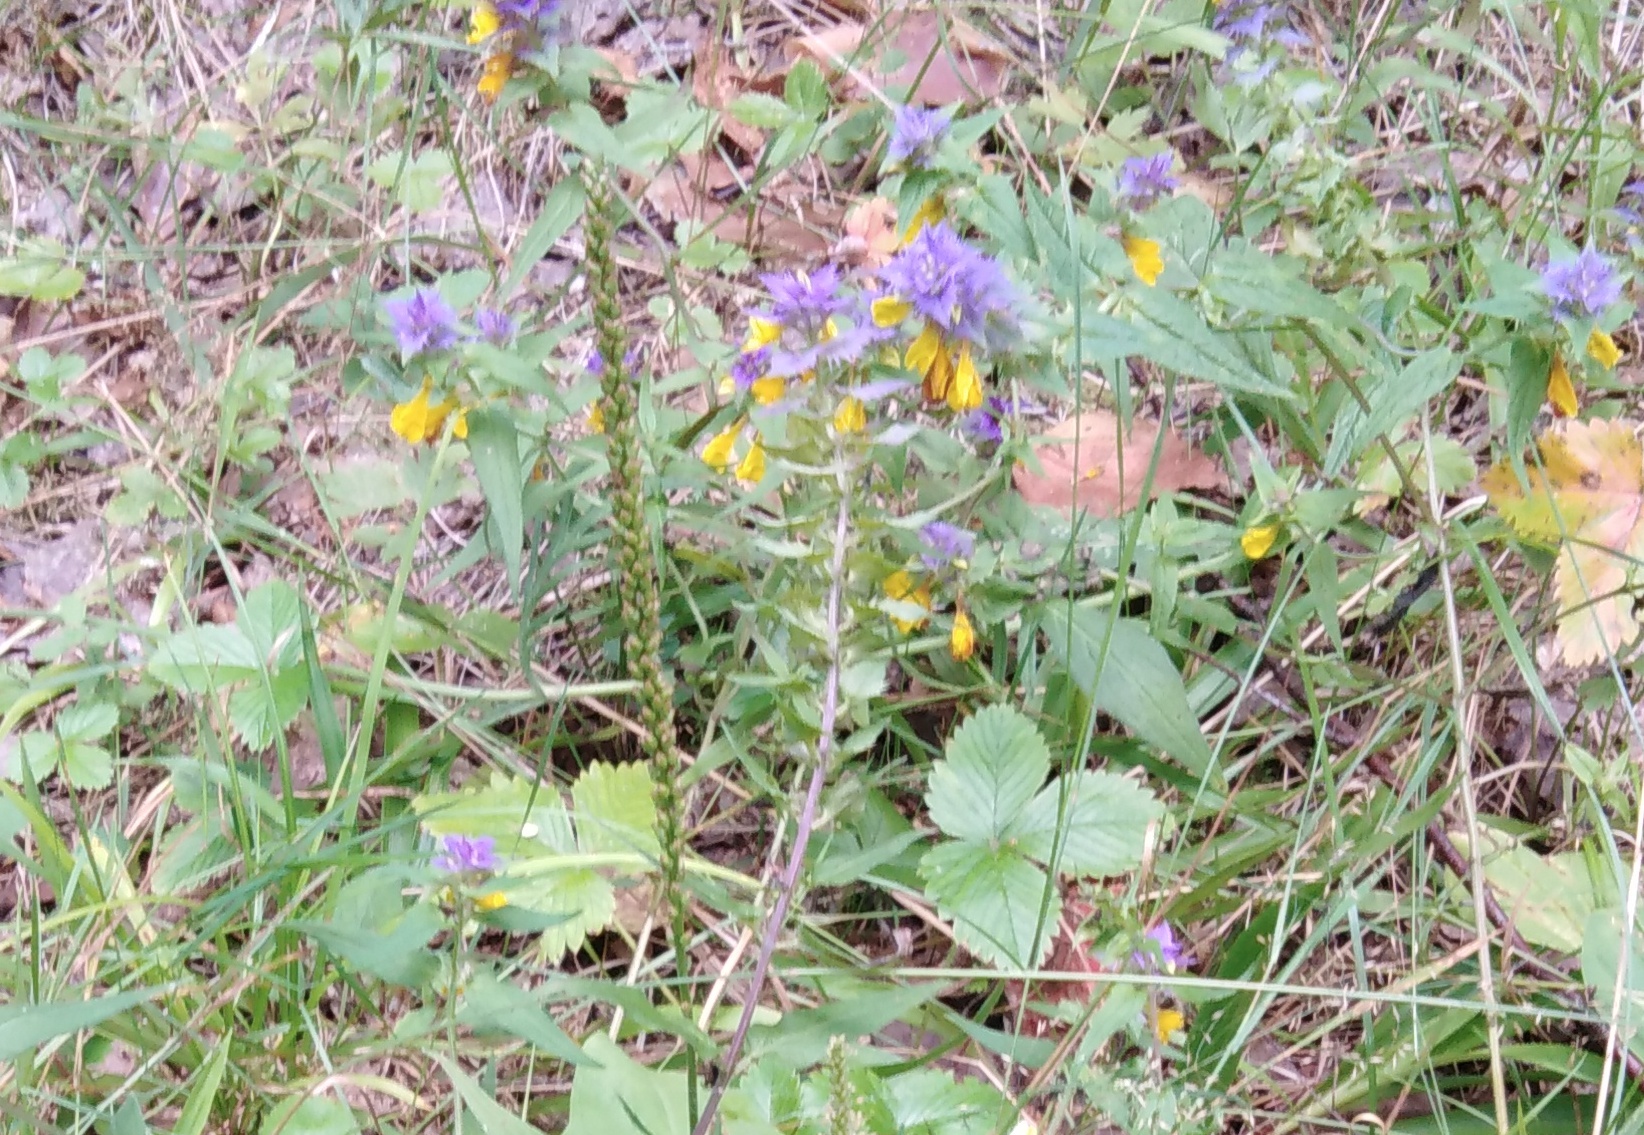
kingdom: Plantae
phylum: Tracheophyta
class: Magnoliopsida
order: Lamiales
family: Orobanchaceae
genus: Melampyrum
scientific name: Melampyrum nemorosum
